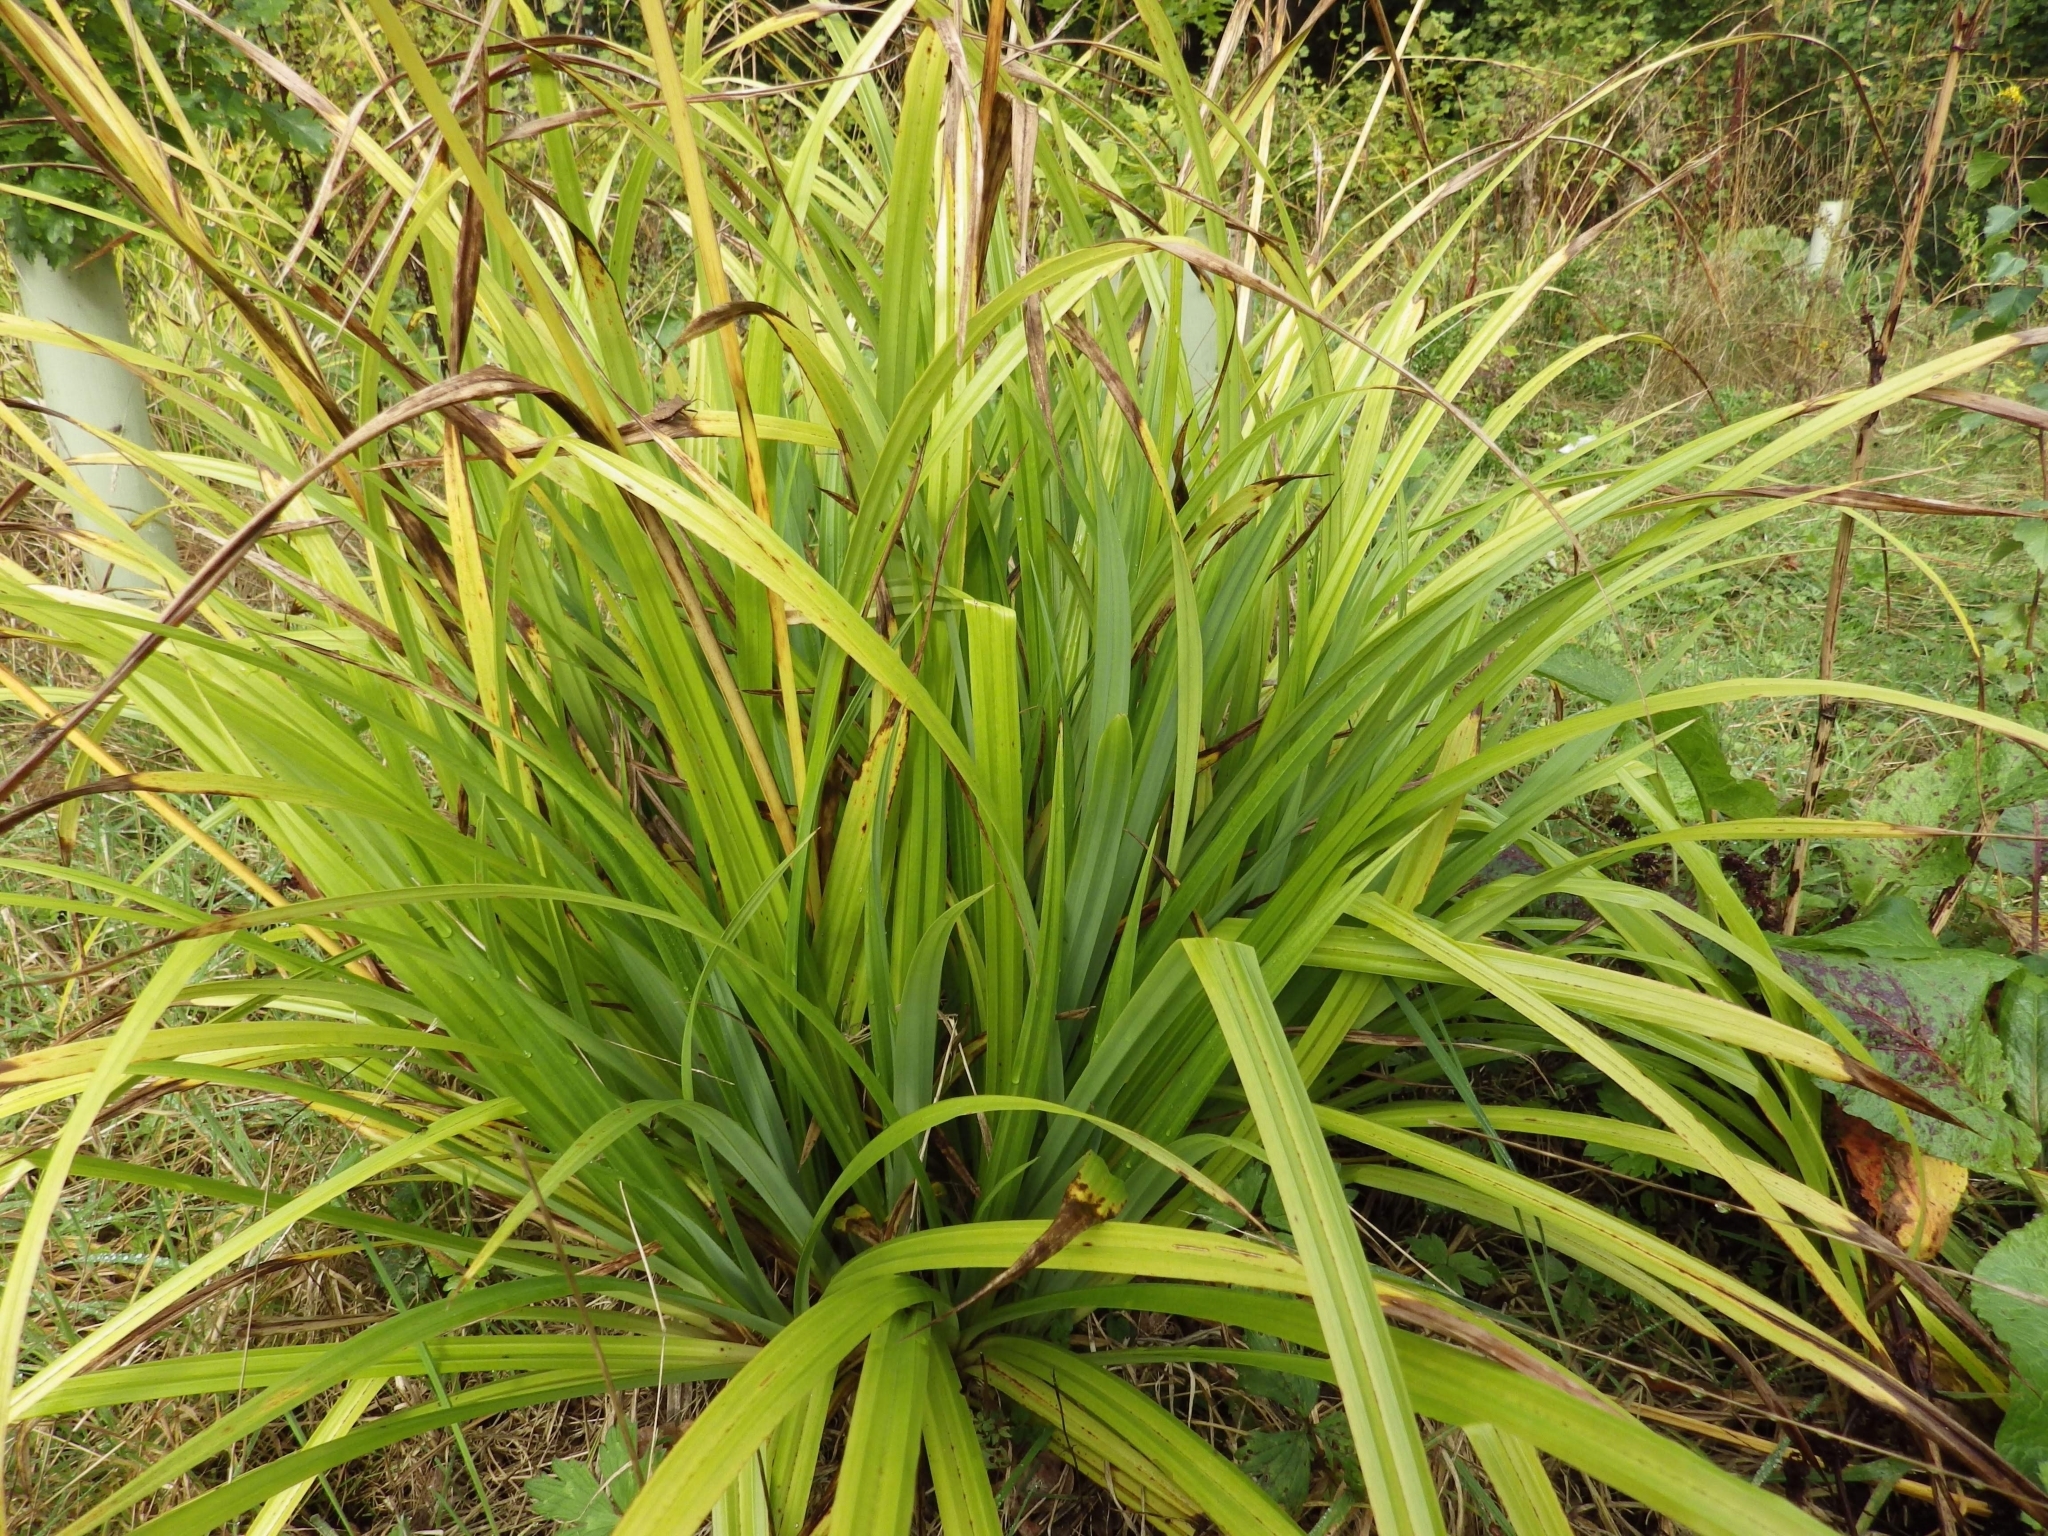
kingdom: Plantae
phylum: Tracheophyta
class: Liliopsida
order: Poales
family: Cyperaceae
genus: Carex
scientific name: Carex pendula
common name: Pendulous sedge
